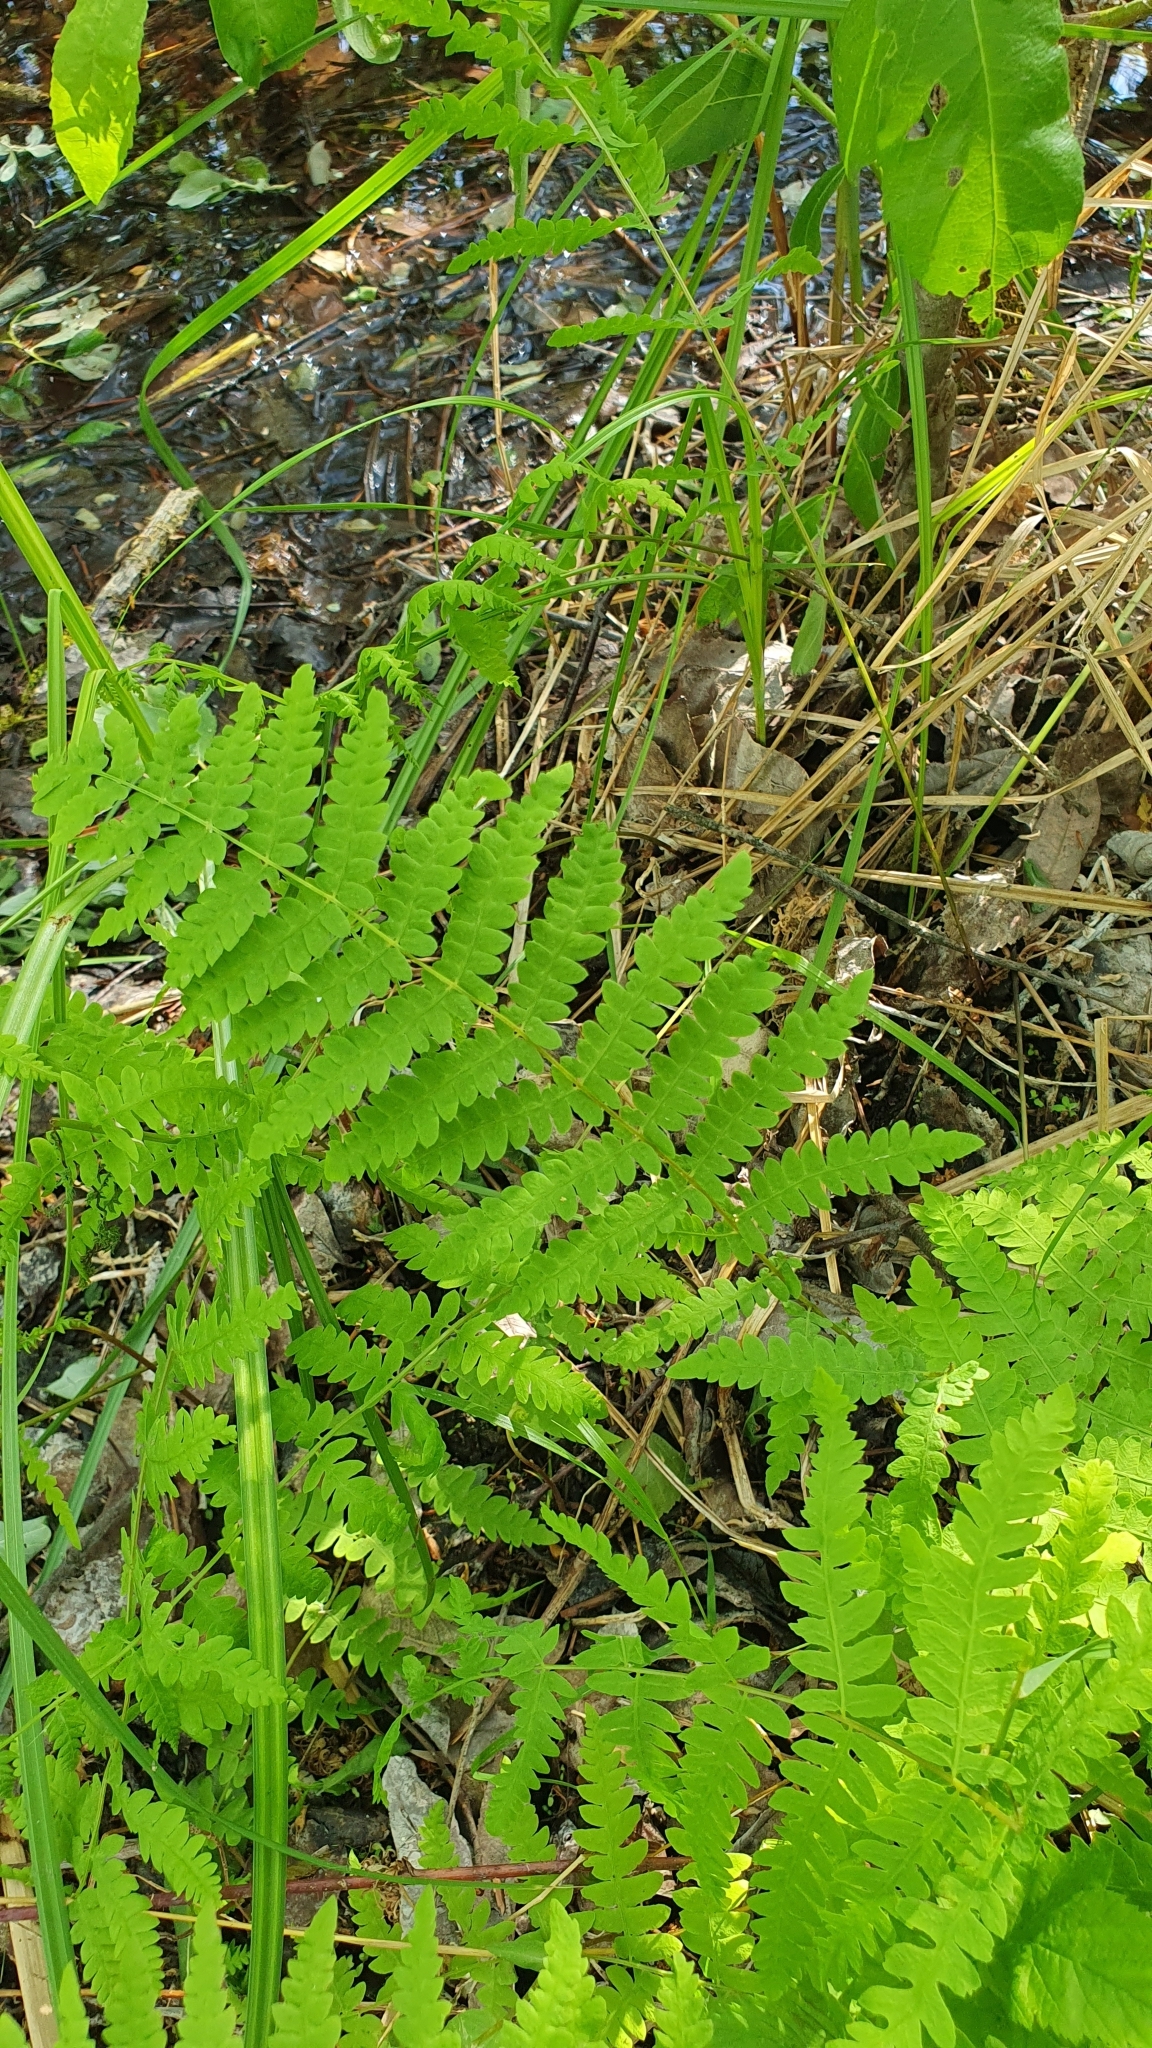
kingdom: Plantae
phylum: Tracheophyta
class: Polypodiopsida
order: Polypodiales
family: Thelypteridaceae
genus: Thelypteris
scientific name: Thelypteris palustris
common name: Marsh fern
